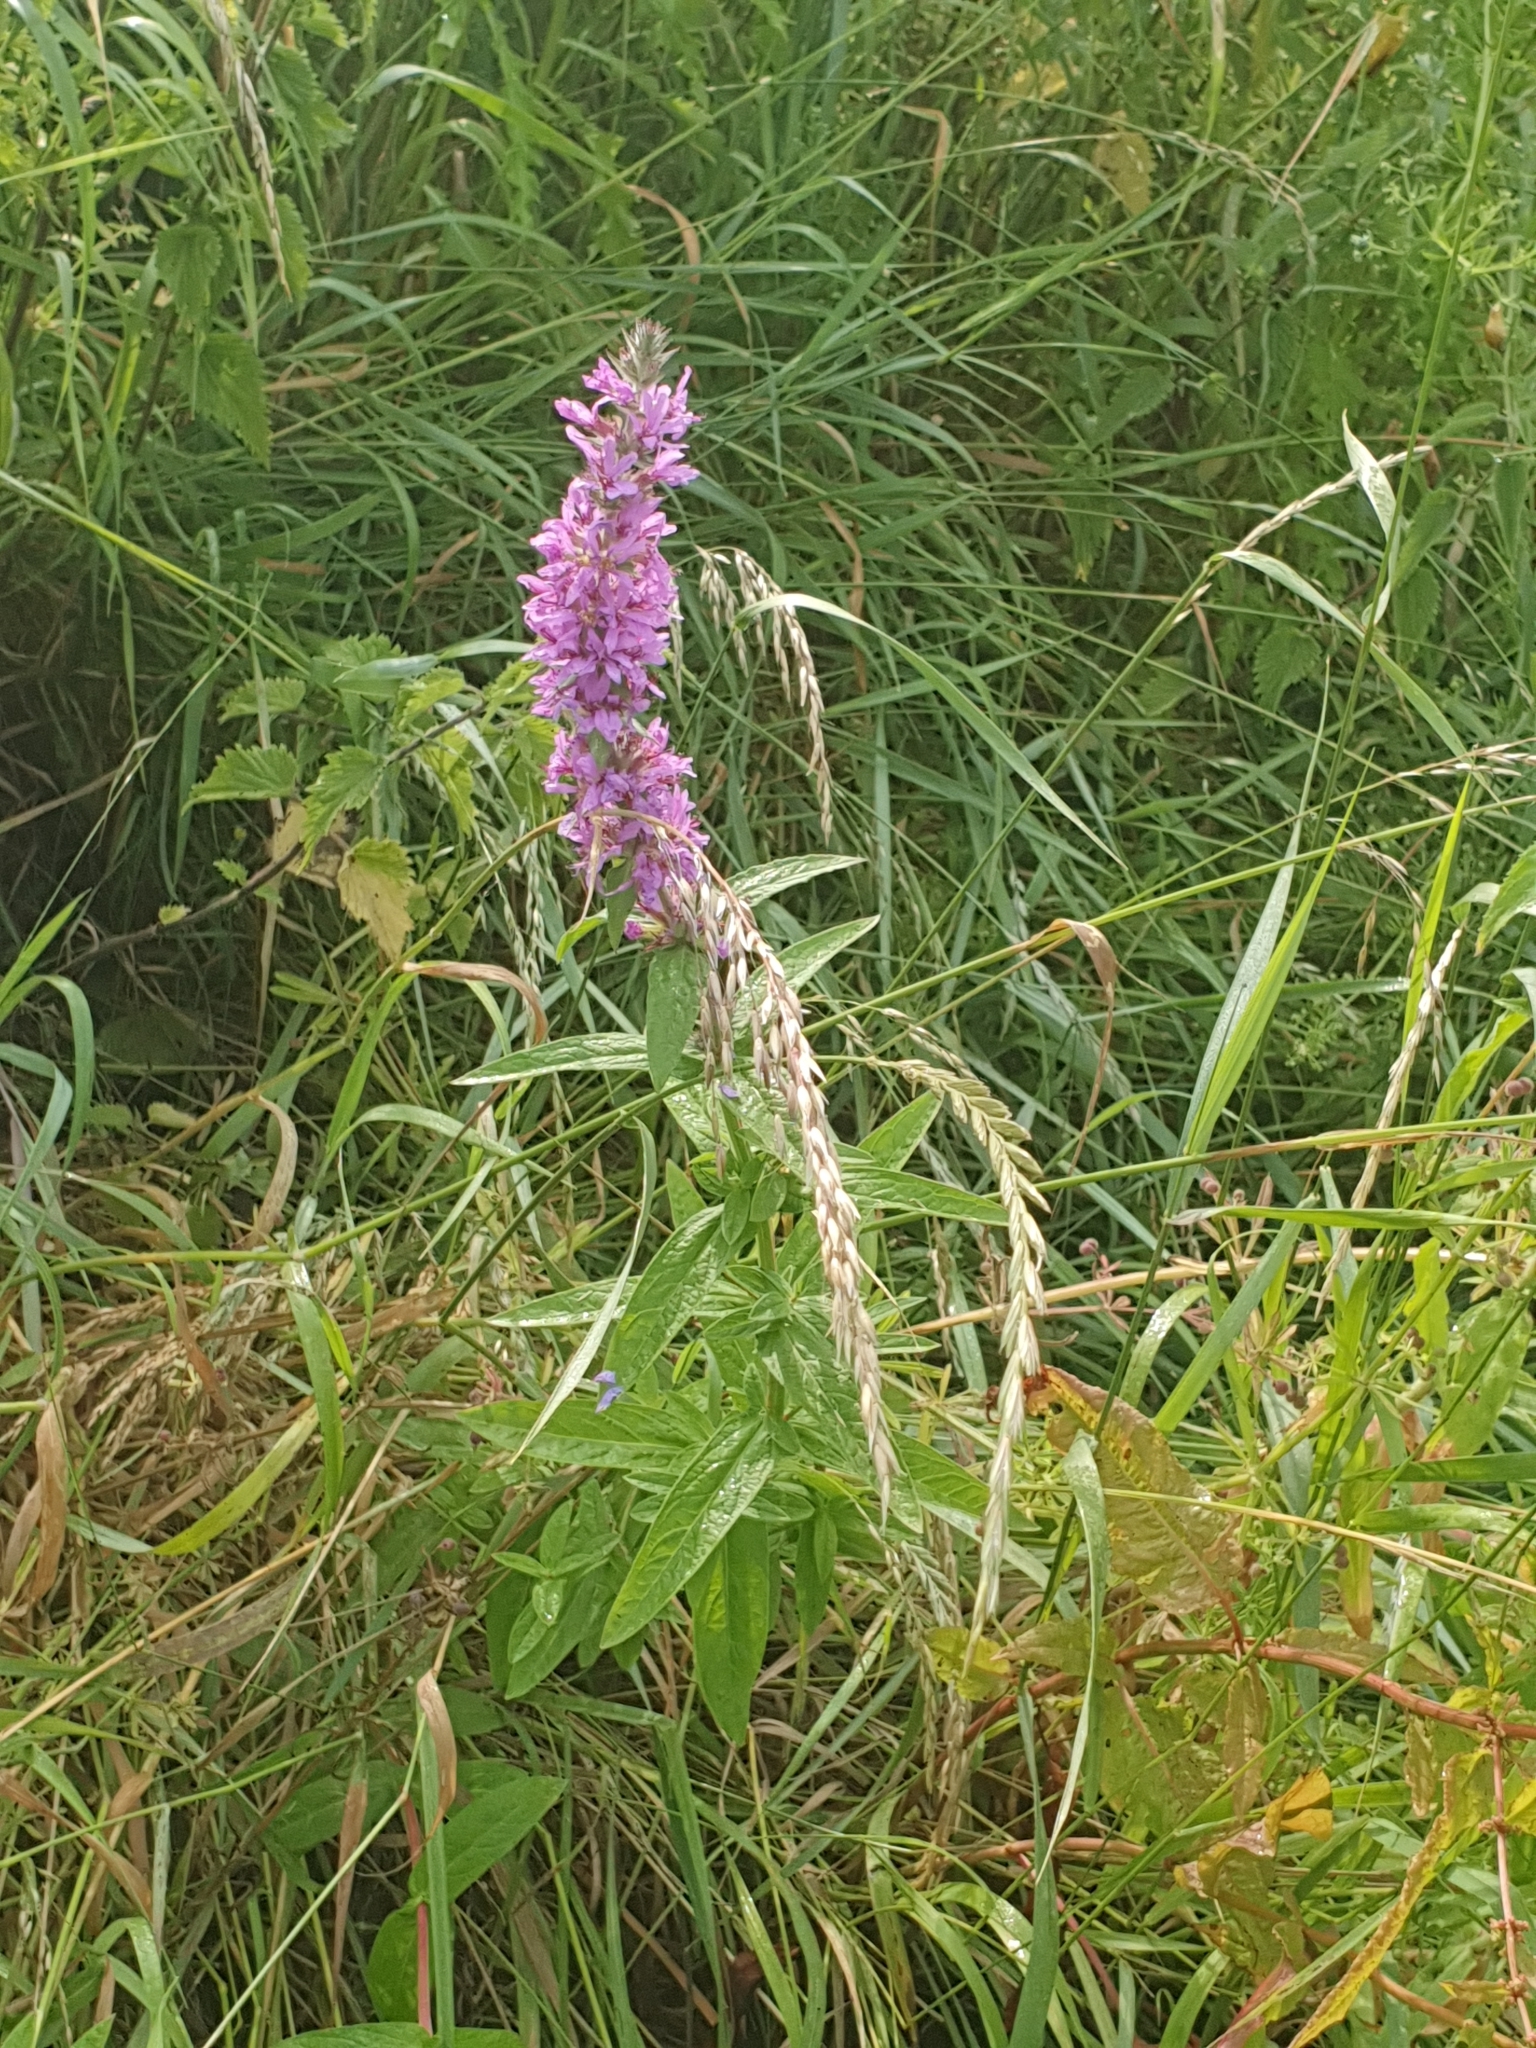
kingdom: Plantae
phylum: Tracheophyta
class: Magnoliopsida
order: Myrtales
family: Lythraceae
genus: Lythrum
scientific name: Lythrum salicaria
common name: Purple loosestrife
